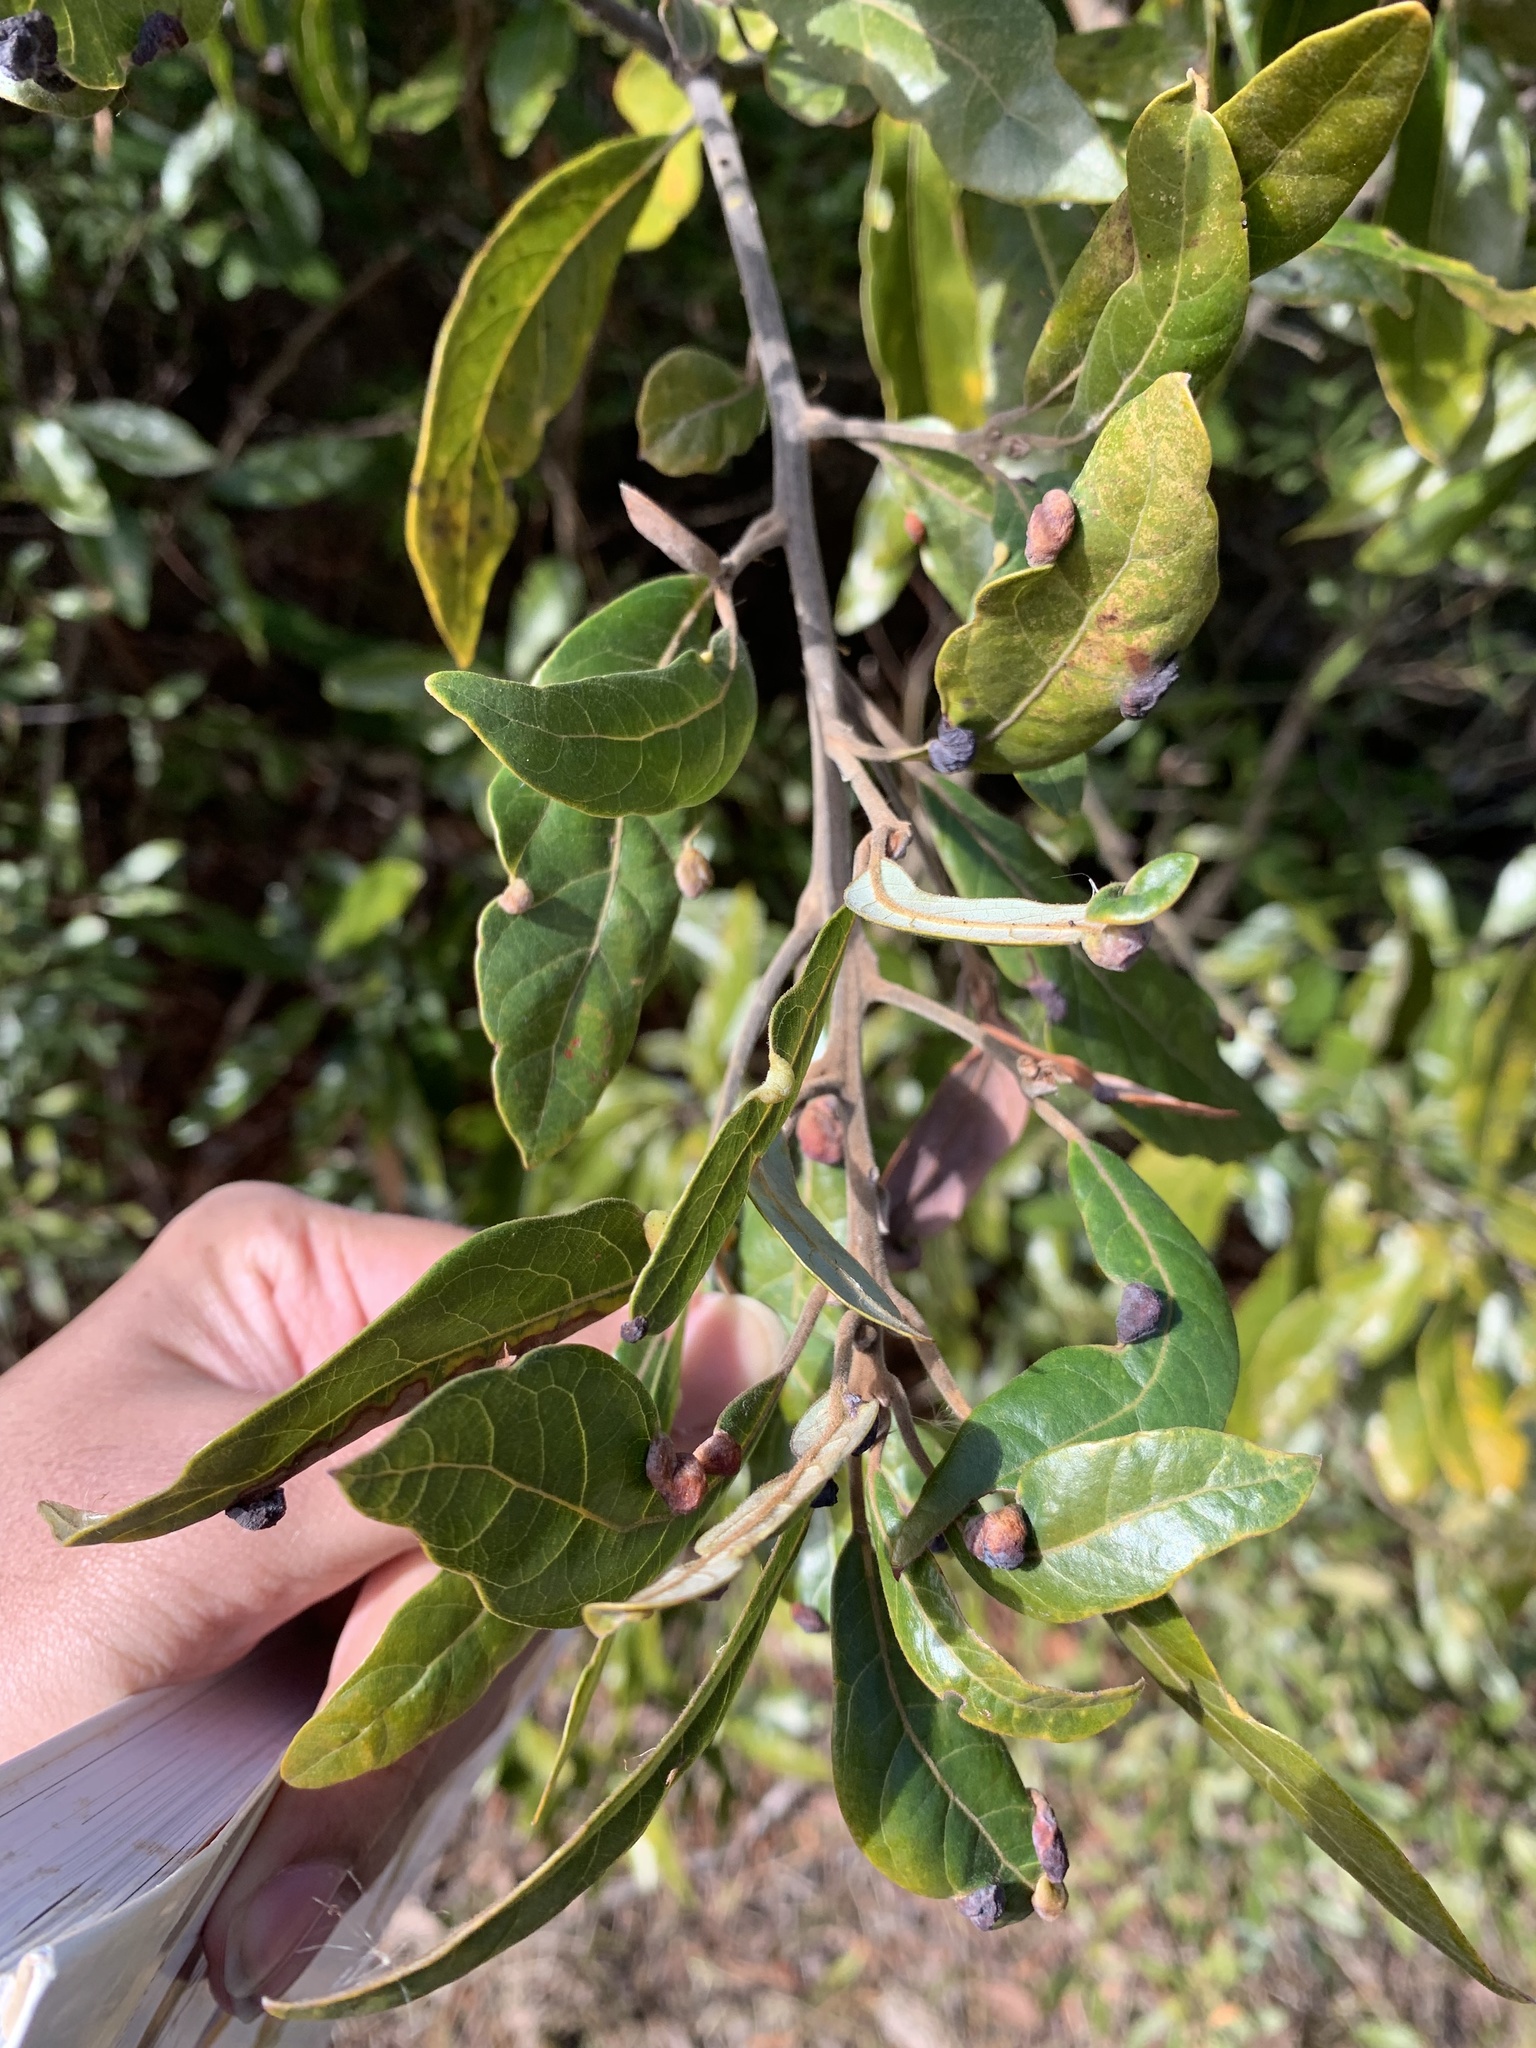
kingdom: Plantae
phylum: Tracheophyta
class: Magnoliopsida
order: Laurales
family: Lauraceae
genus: Persea
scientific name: Persea palustris
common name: Swampbay
